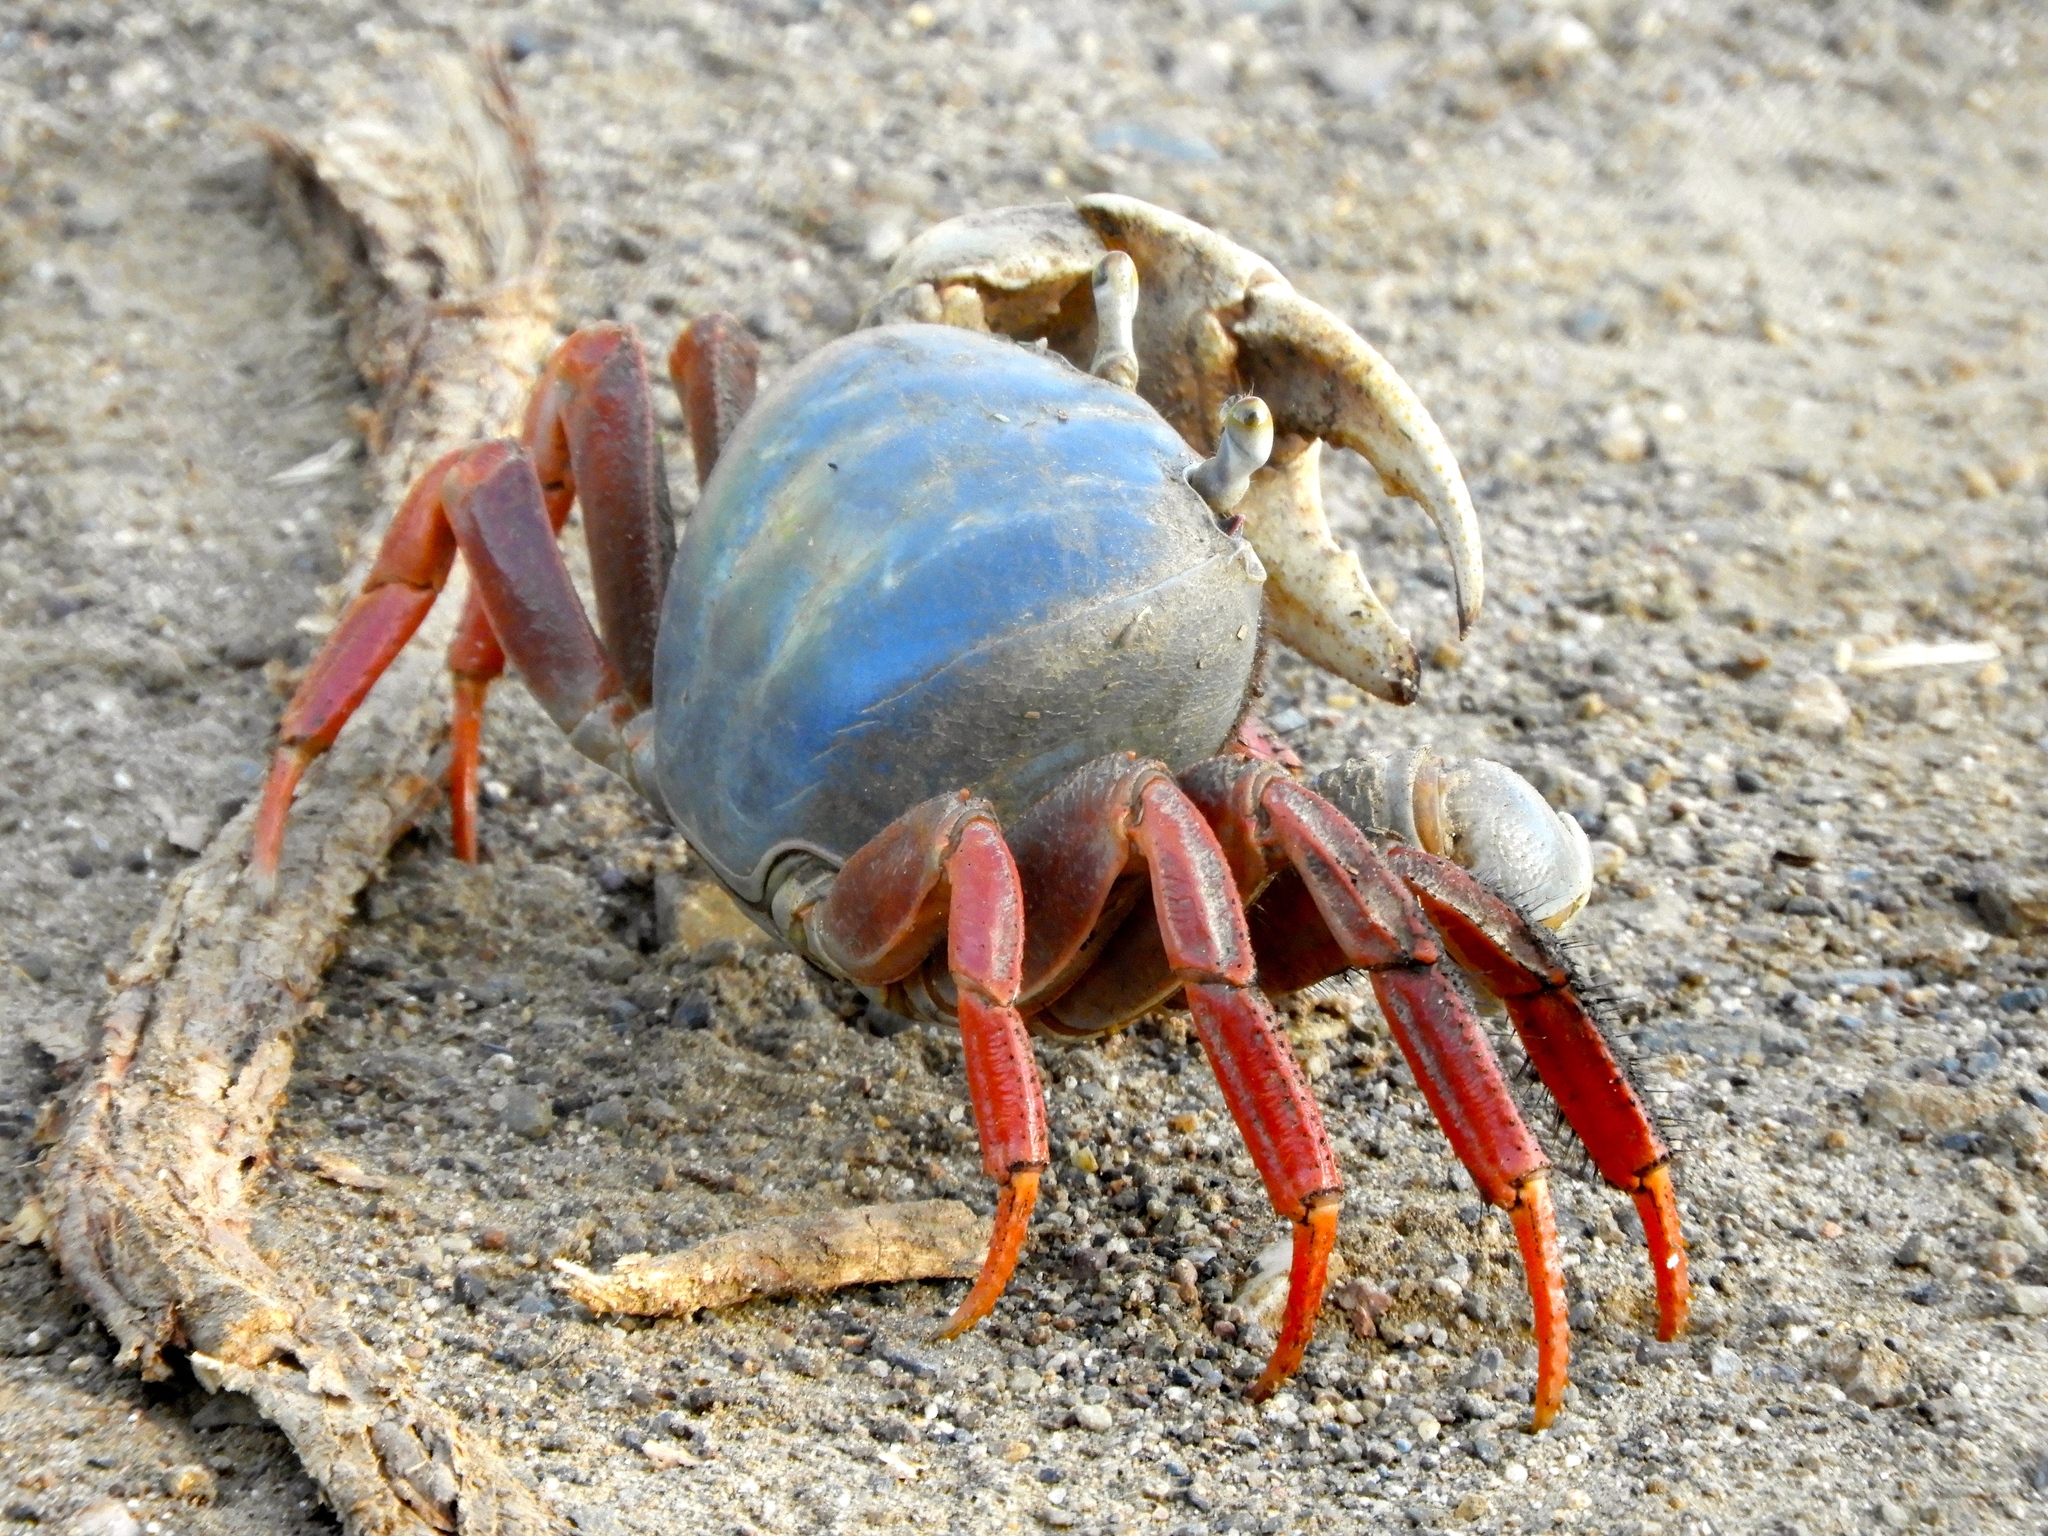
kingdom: Animalia
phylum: Arthropoda
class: Malacostraca
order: Decapoda
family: Gecarcinidae
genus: Cardisoma
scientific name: Cardisoma crassum
